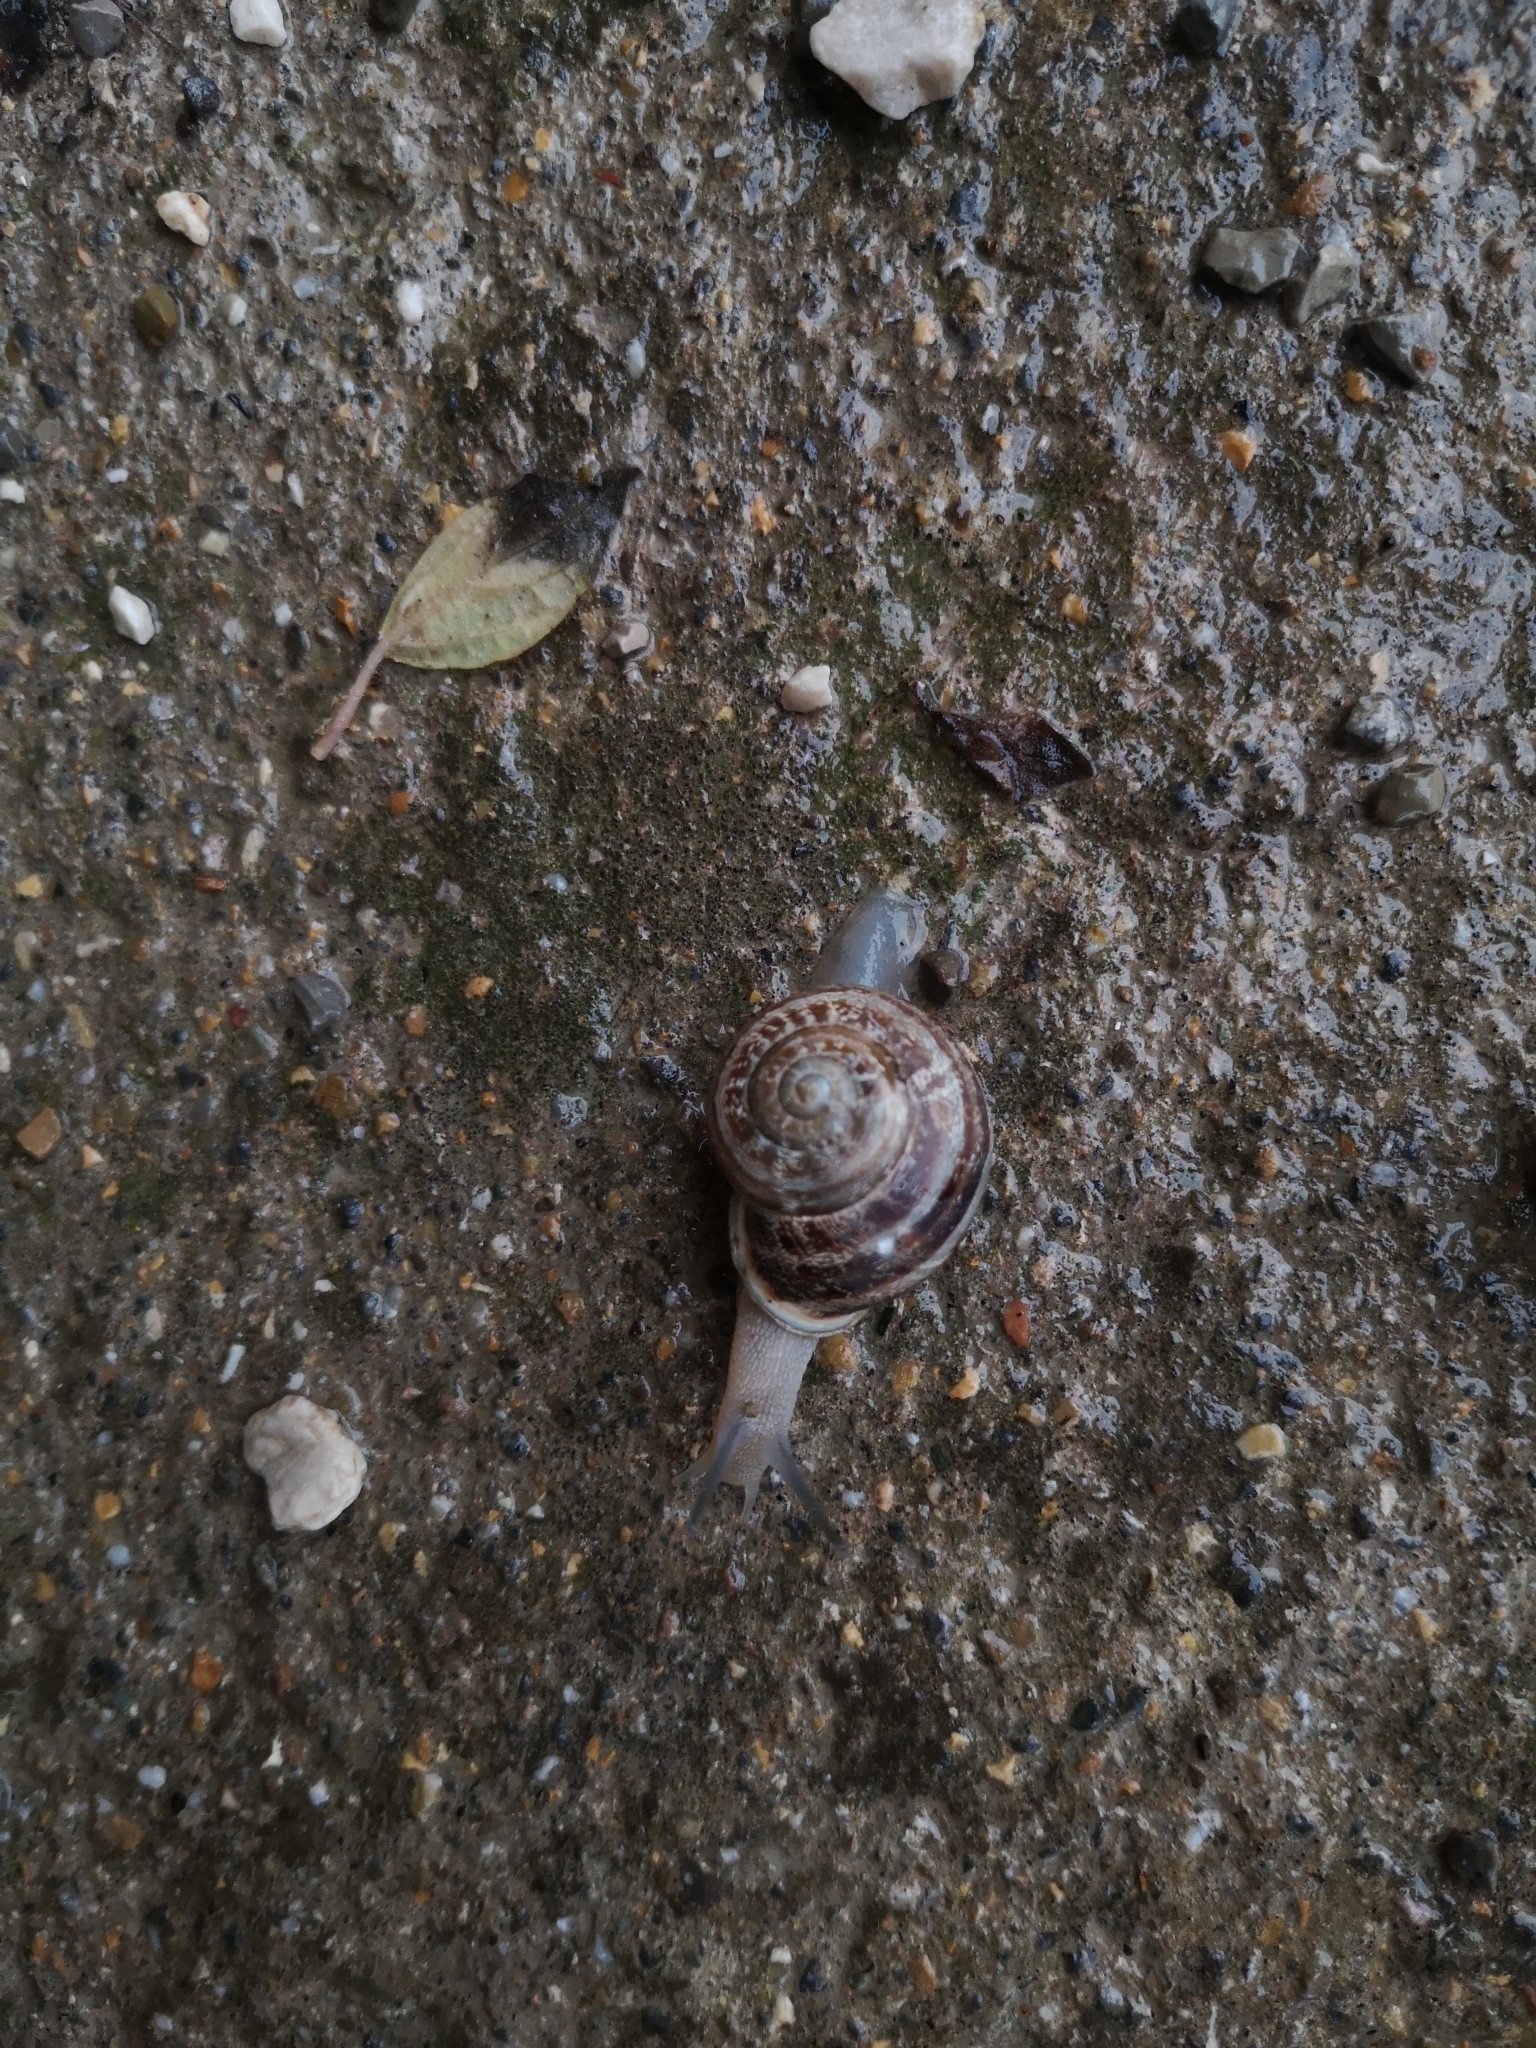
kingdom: Animalia
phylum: Mollusca
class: Gastropoda
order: Stylommatophora
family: Helicidae
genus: Eobania
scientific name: Eobania vermiculata
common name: Chocolateband snail
